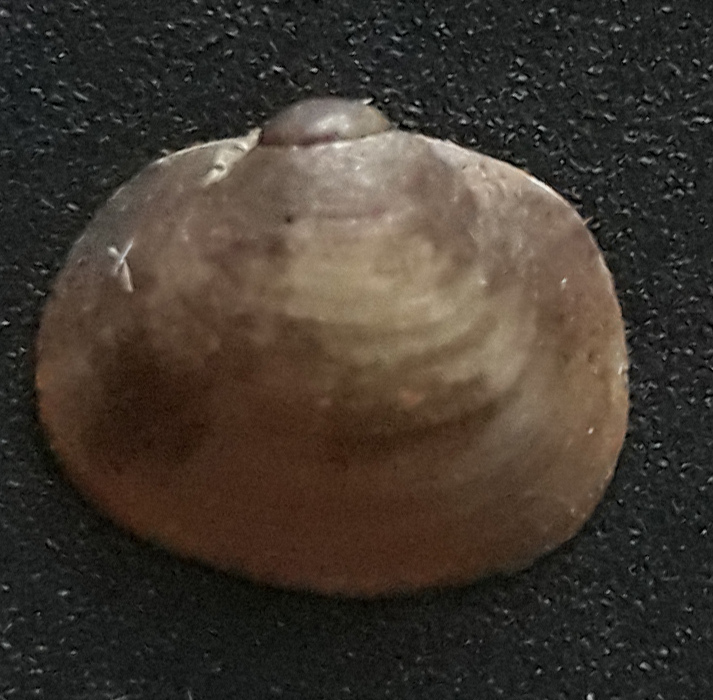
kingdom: Animalia
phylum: Mollusca
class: Bivalvia
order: Sphaeriida
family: Sphaeriidae
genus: Musculium
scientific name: Musculium lacustre
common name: Lake fingernailclam
